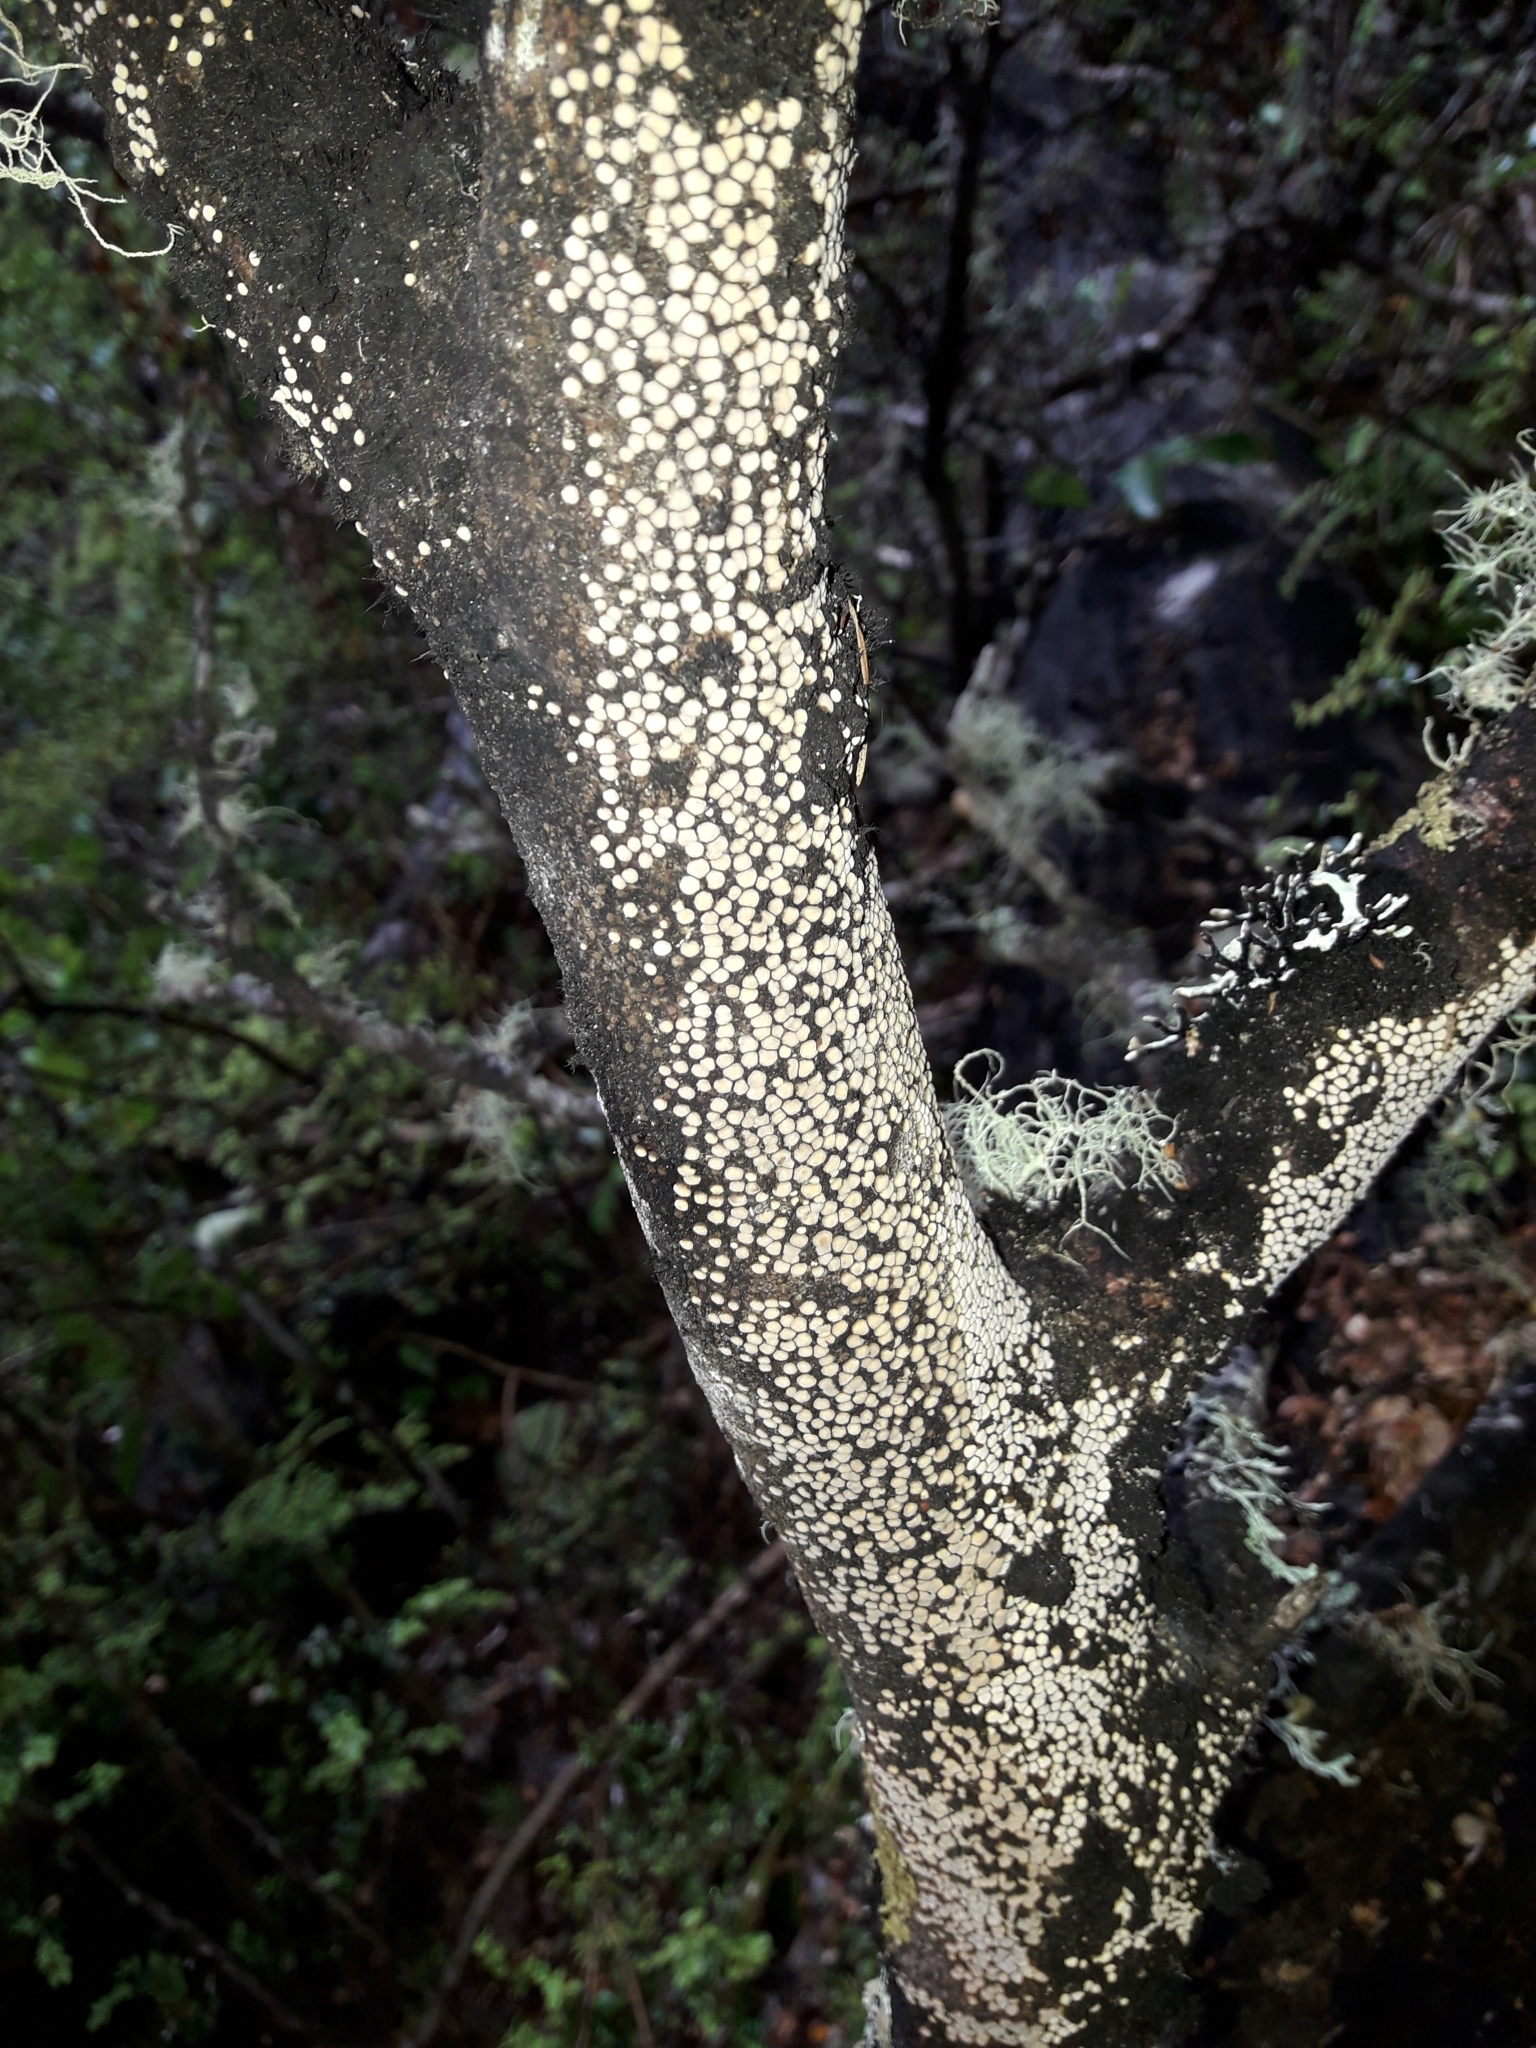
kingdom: Fungi
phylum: Basidiomycota
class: Agaricomycetes
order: Russulales
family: Stereaceae
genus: Aleurodiscus
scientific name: Aleurodiscus berggrenii
